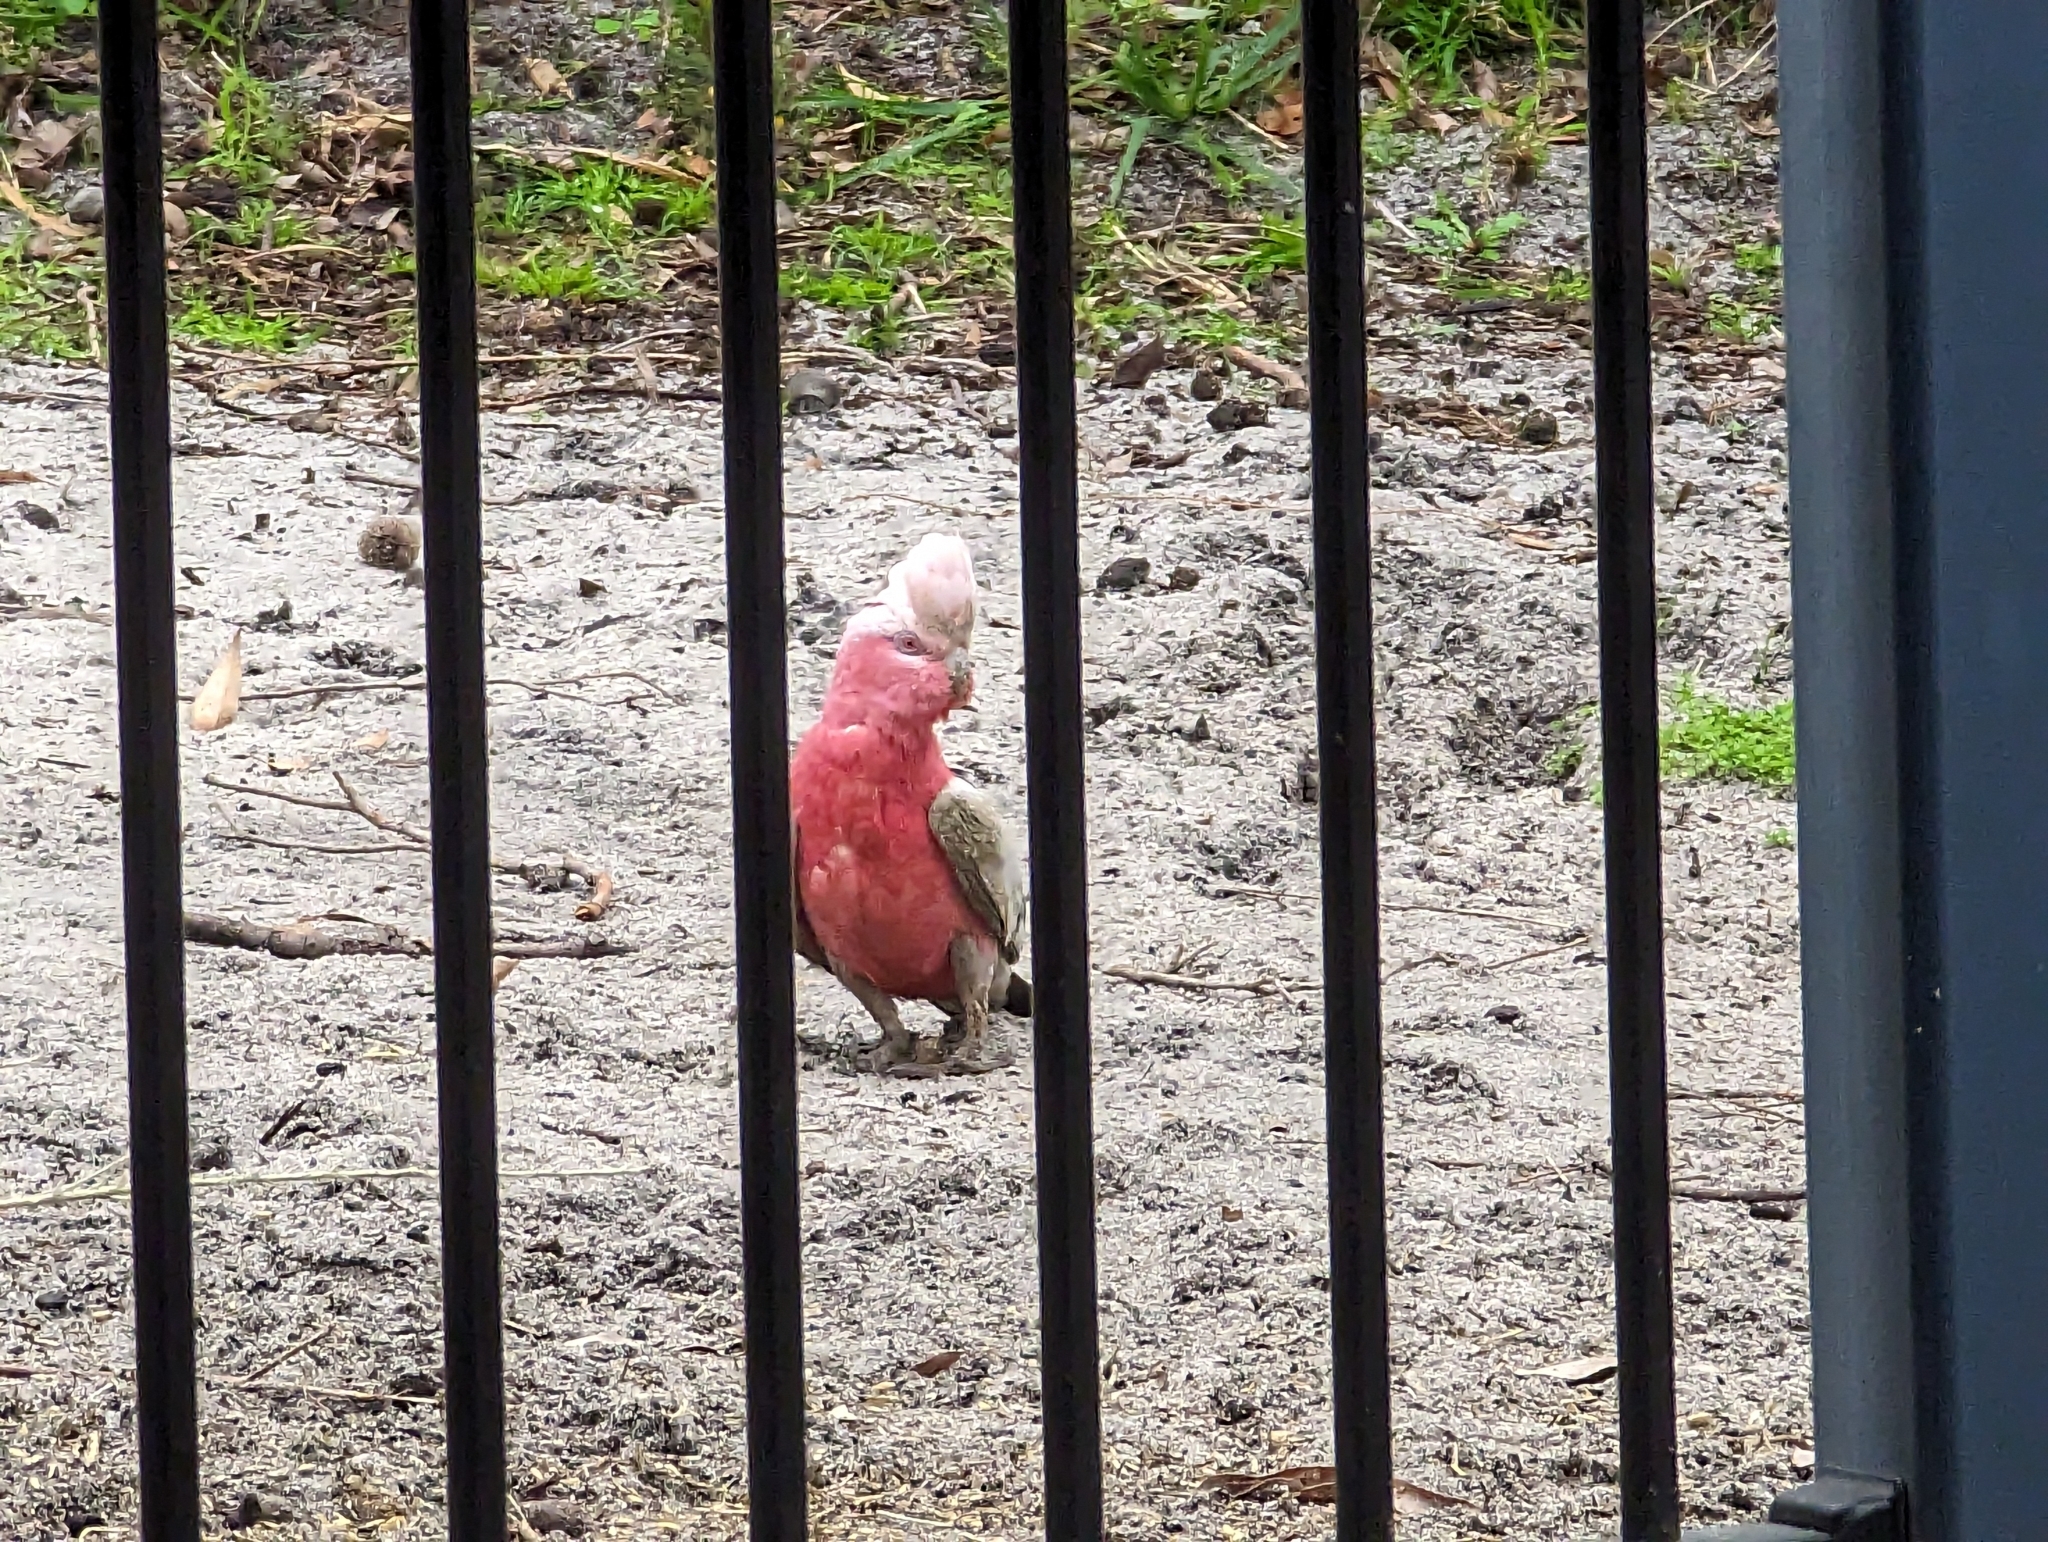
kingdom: Animalia
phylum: Chordata
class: Aves
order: Psittaciformes
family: Psittacidae
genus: Eolophus
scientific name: Eolophus roseicapilla
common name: Galah
